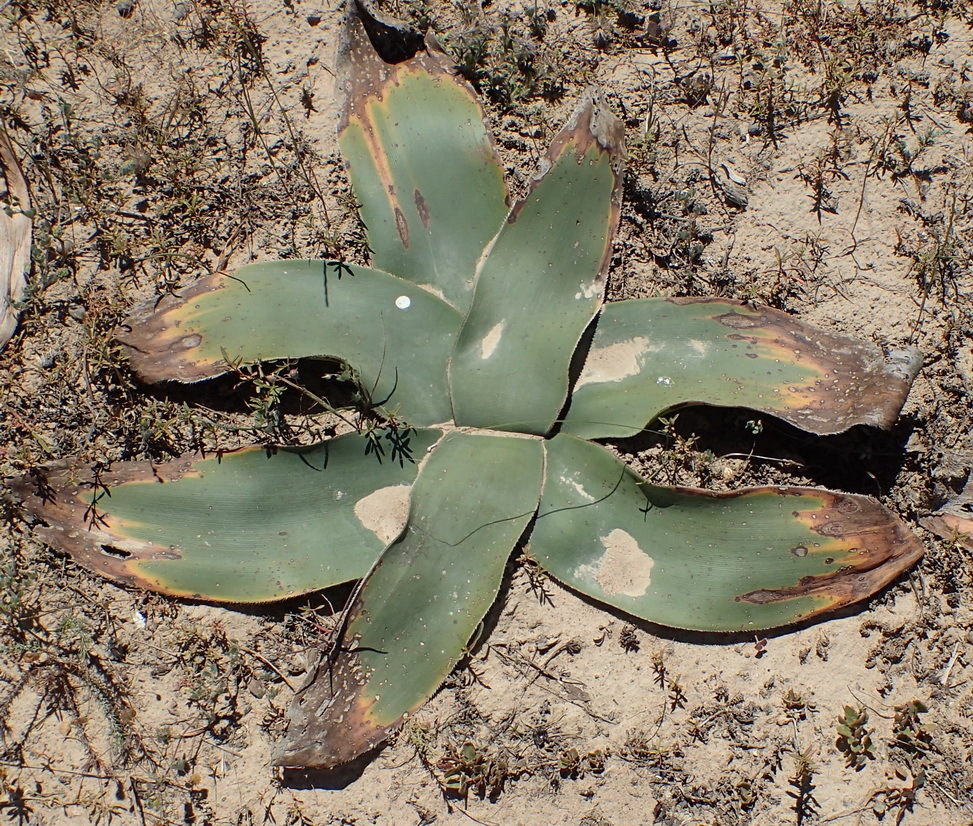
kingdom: Plantae
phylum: Tracheophyta
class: Liliopsida
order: Asparagales
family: Amaryllidaceae
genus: Crossyne
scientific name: Crossyne flava
